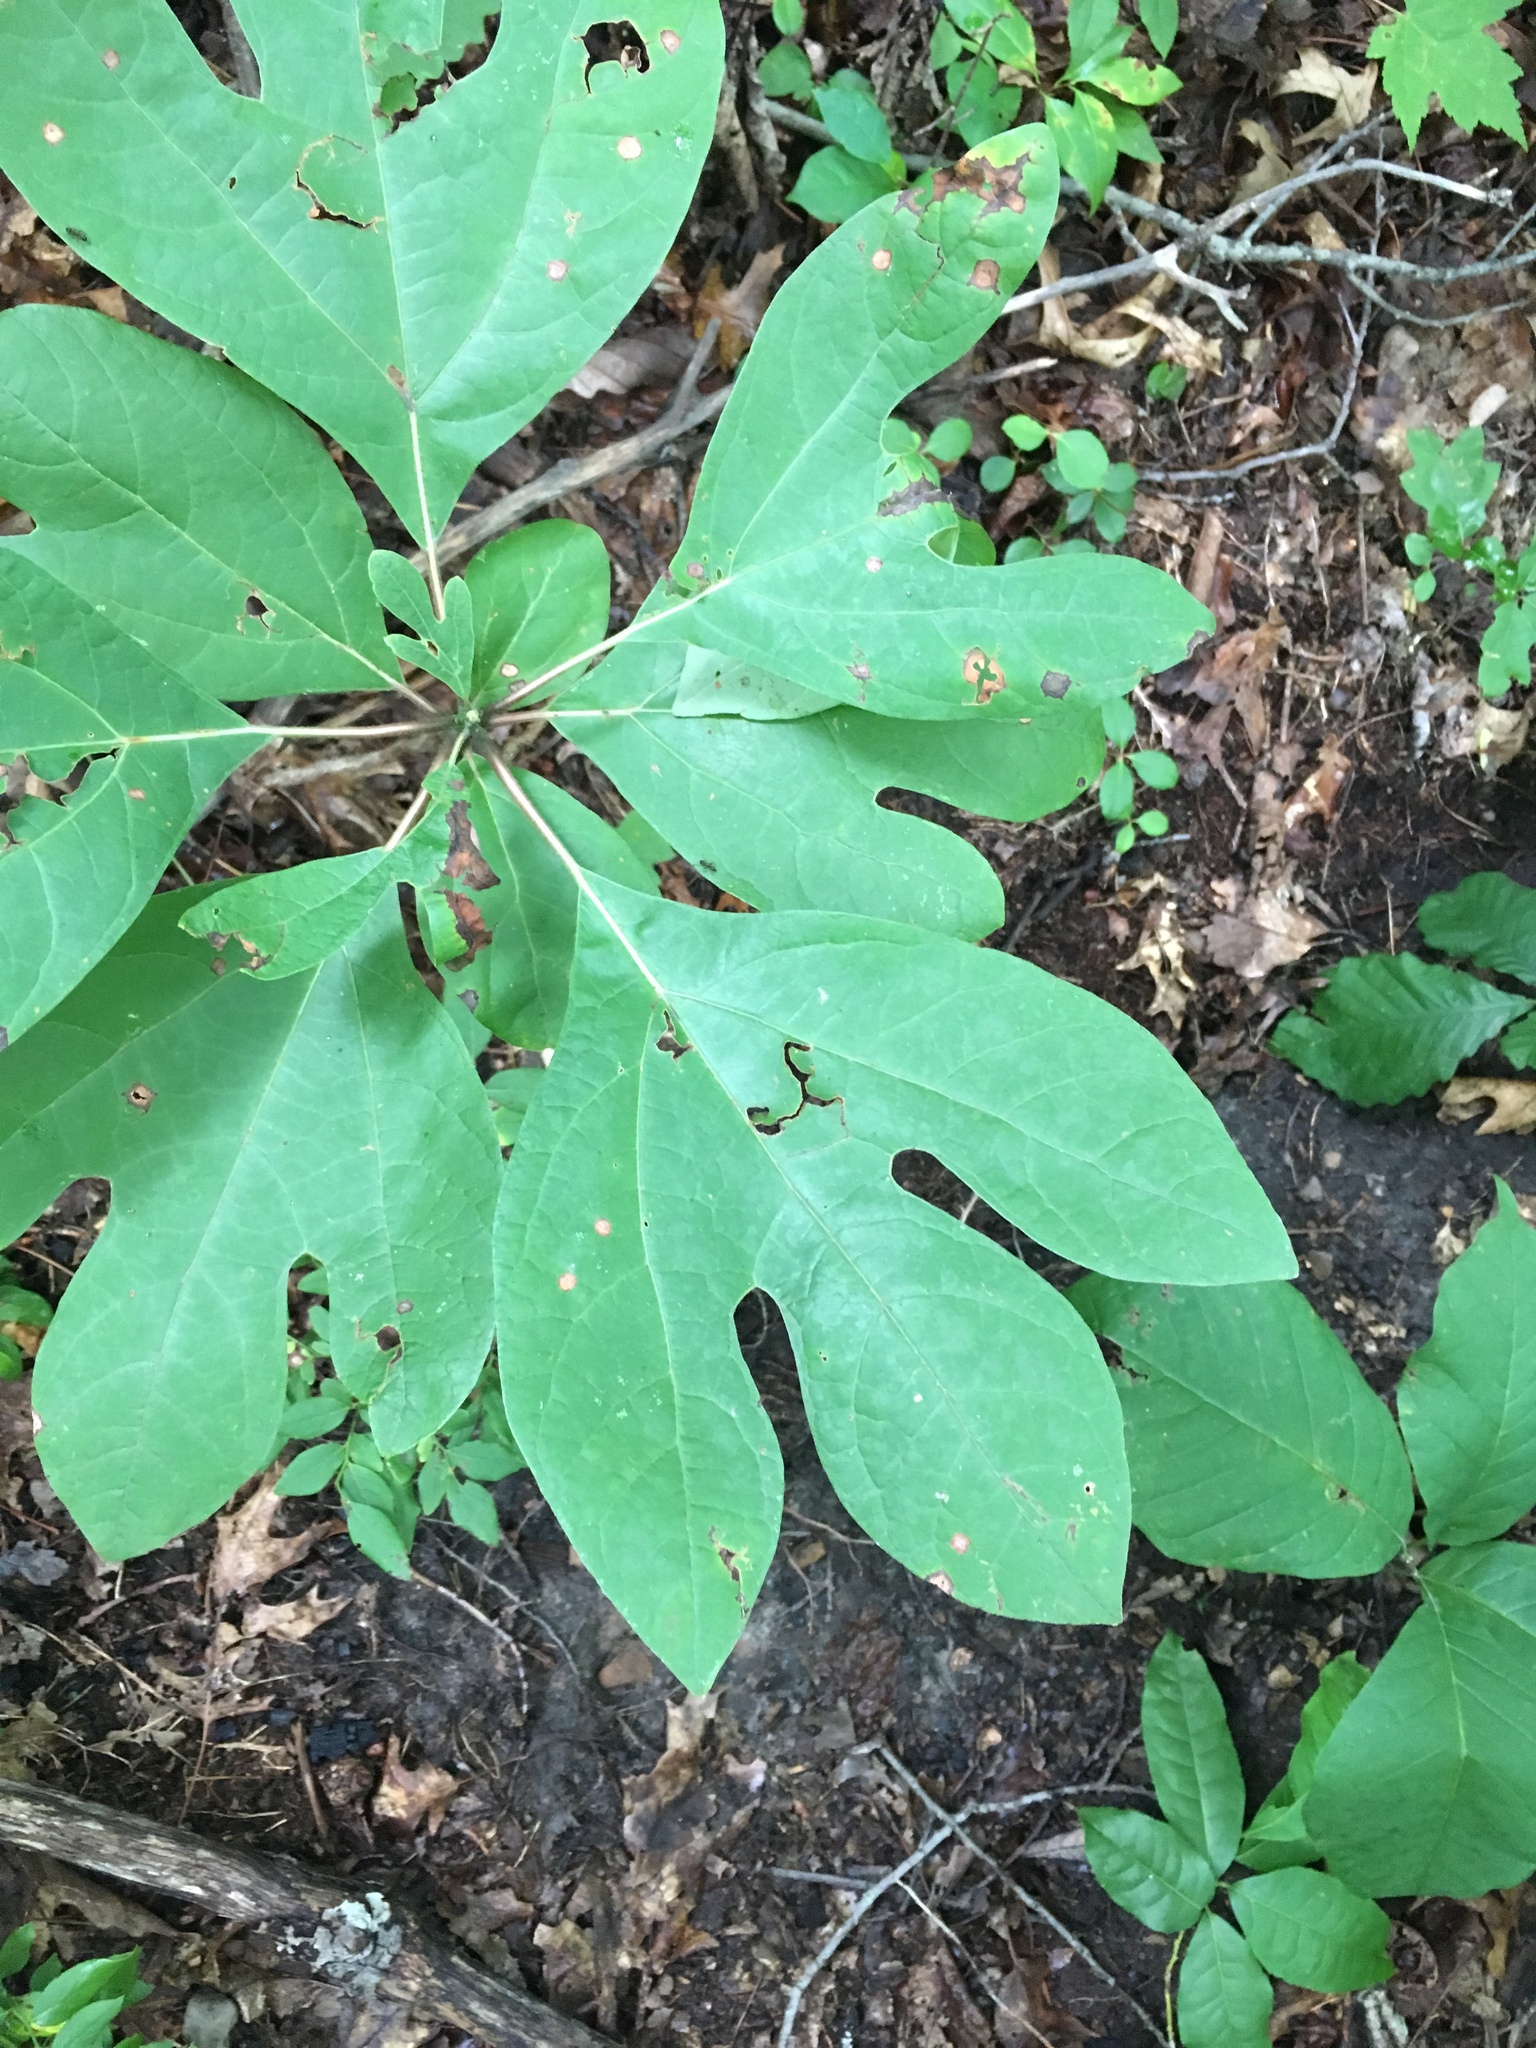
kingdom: Plantae
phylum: Tracheophyta
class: Magnoliopsida
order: Laurales
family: Lauraceae
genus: Sassafras
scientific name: Sassafras albidum
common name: Sassafras
